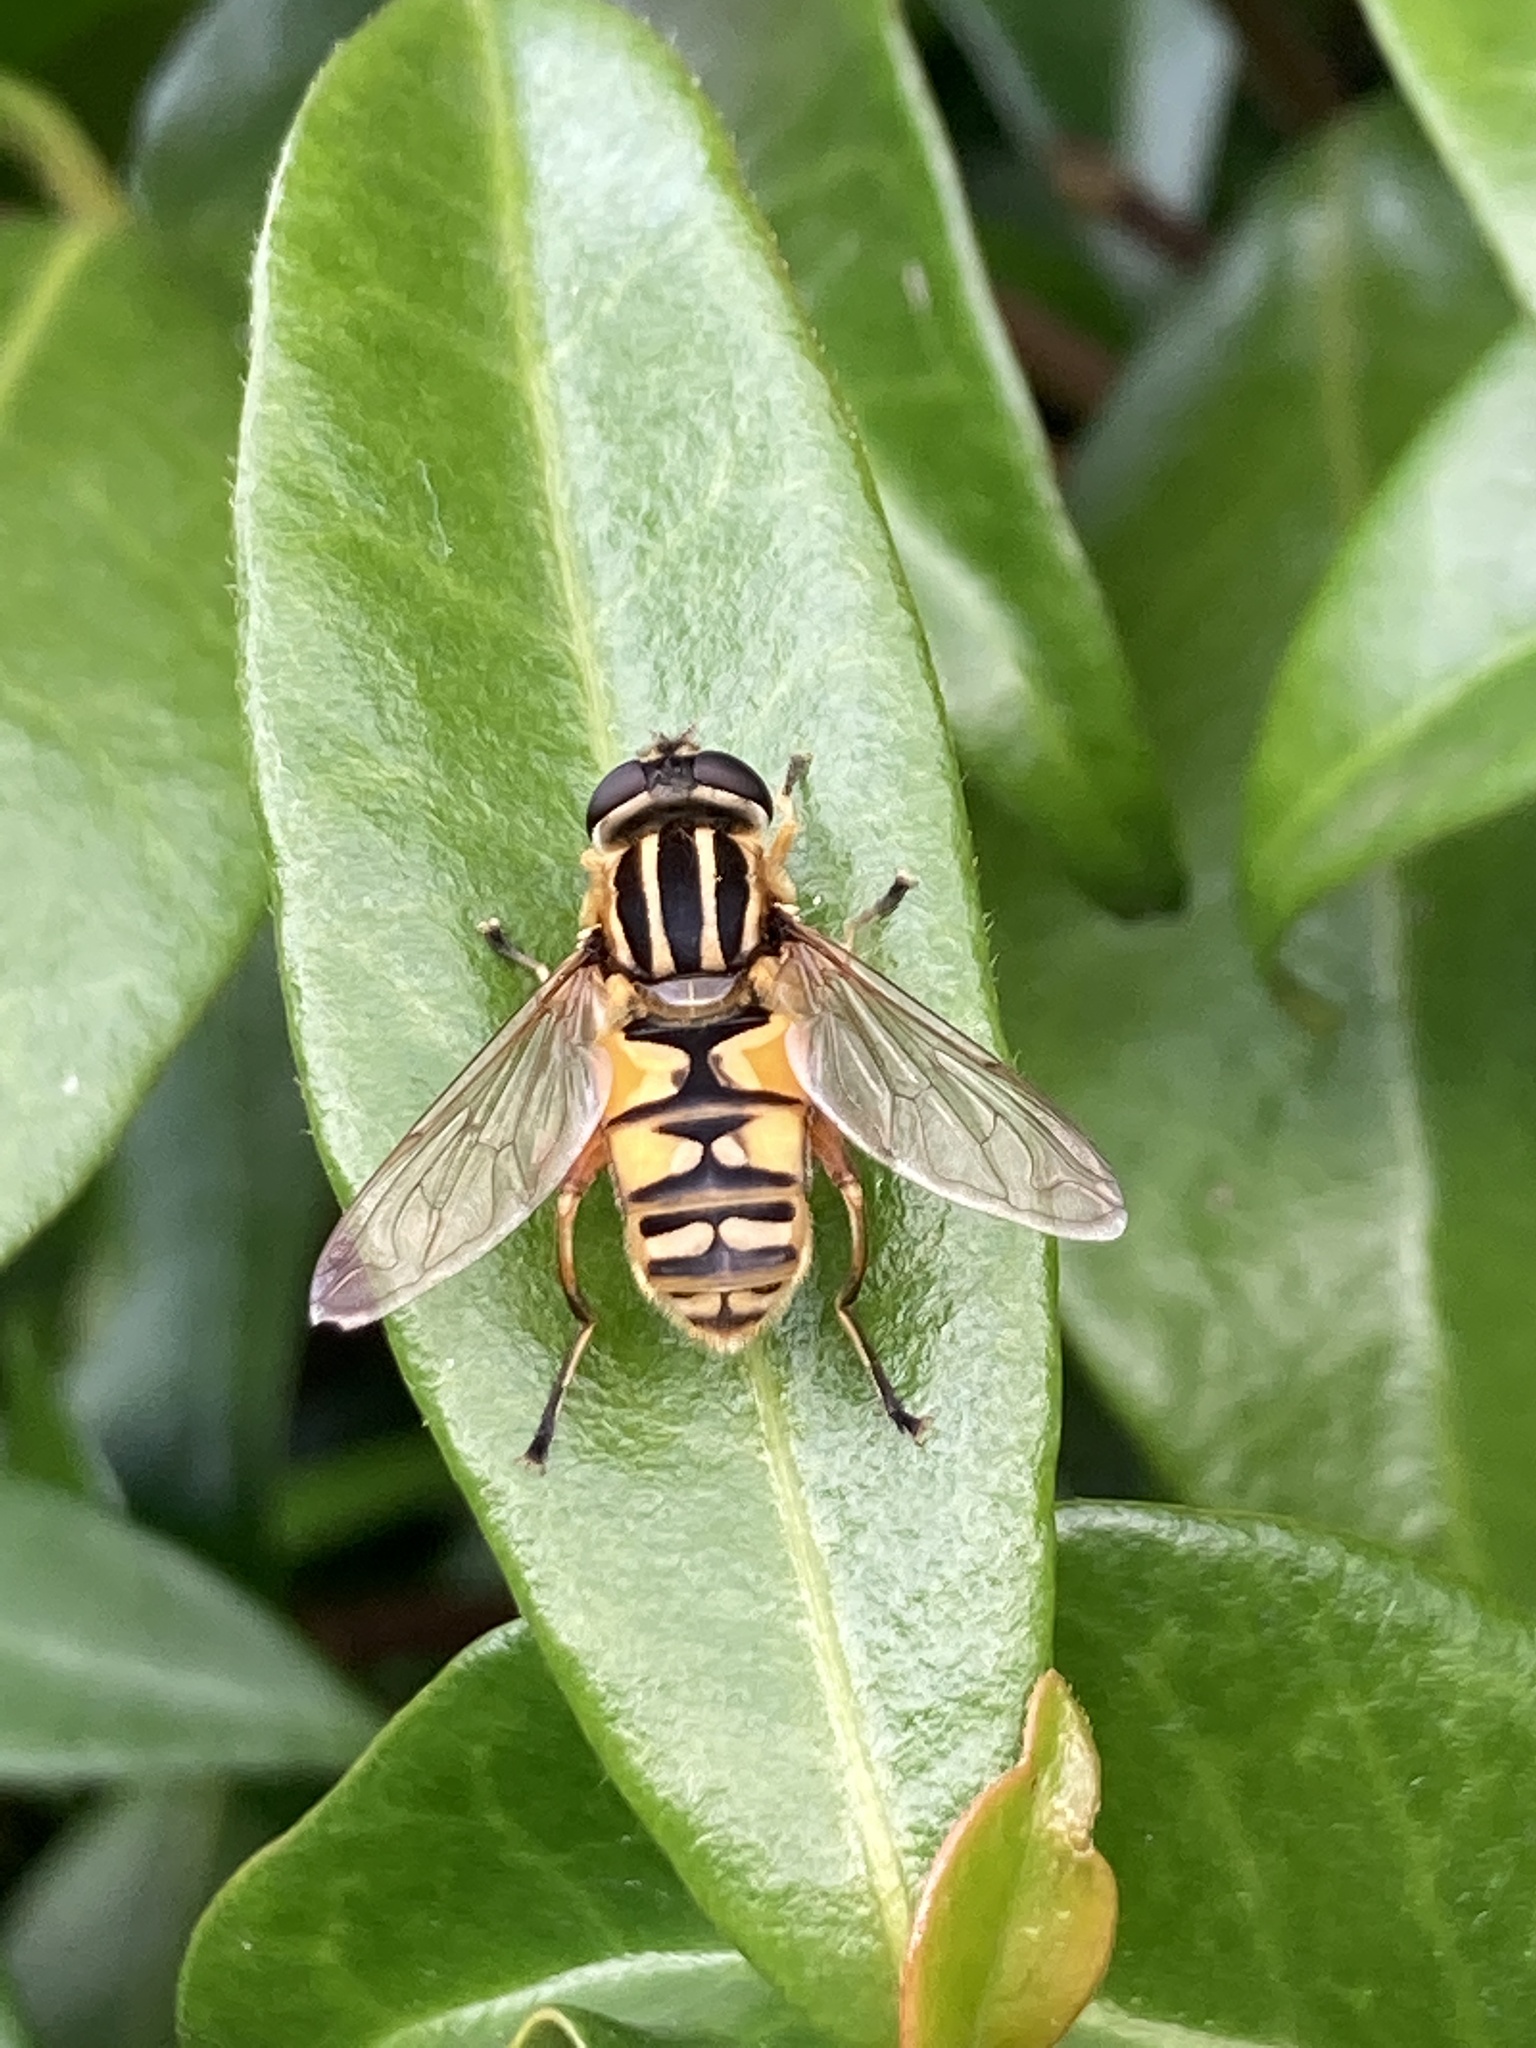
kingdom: Animalia
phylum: Arthropoda
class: Insecta
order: Diptera
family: Syrphidae
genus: Helophilus
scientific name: Helophilus pendulus
